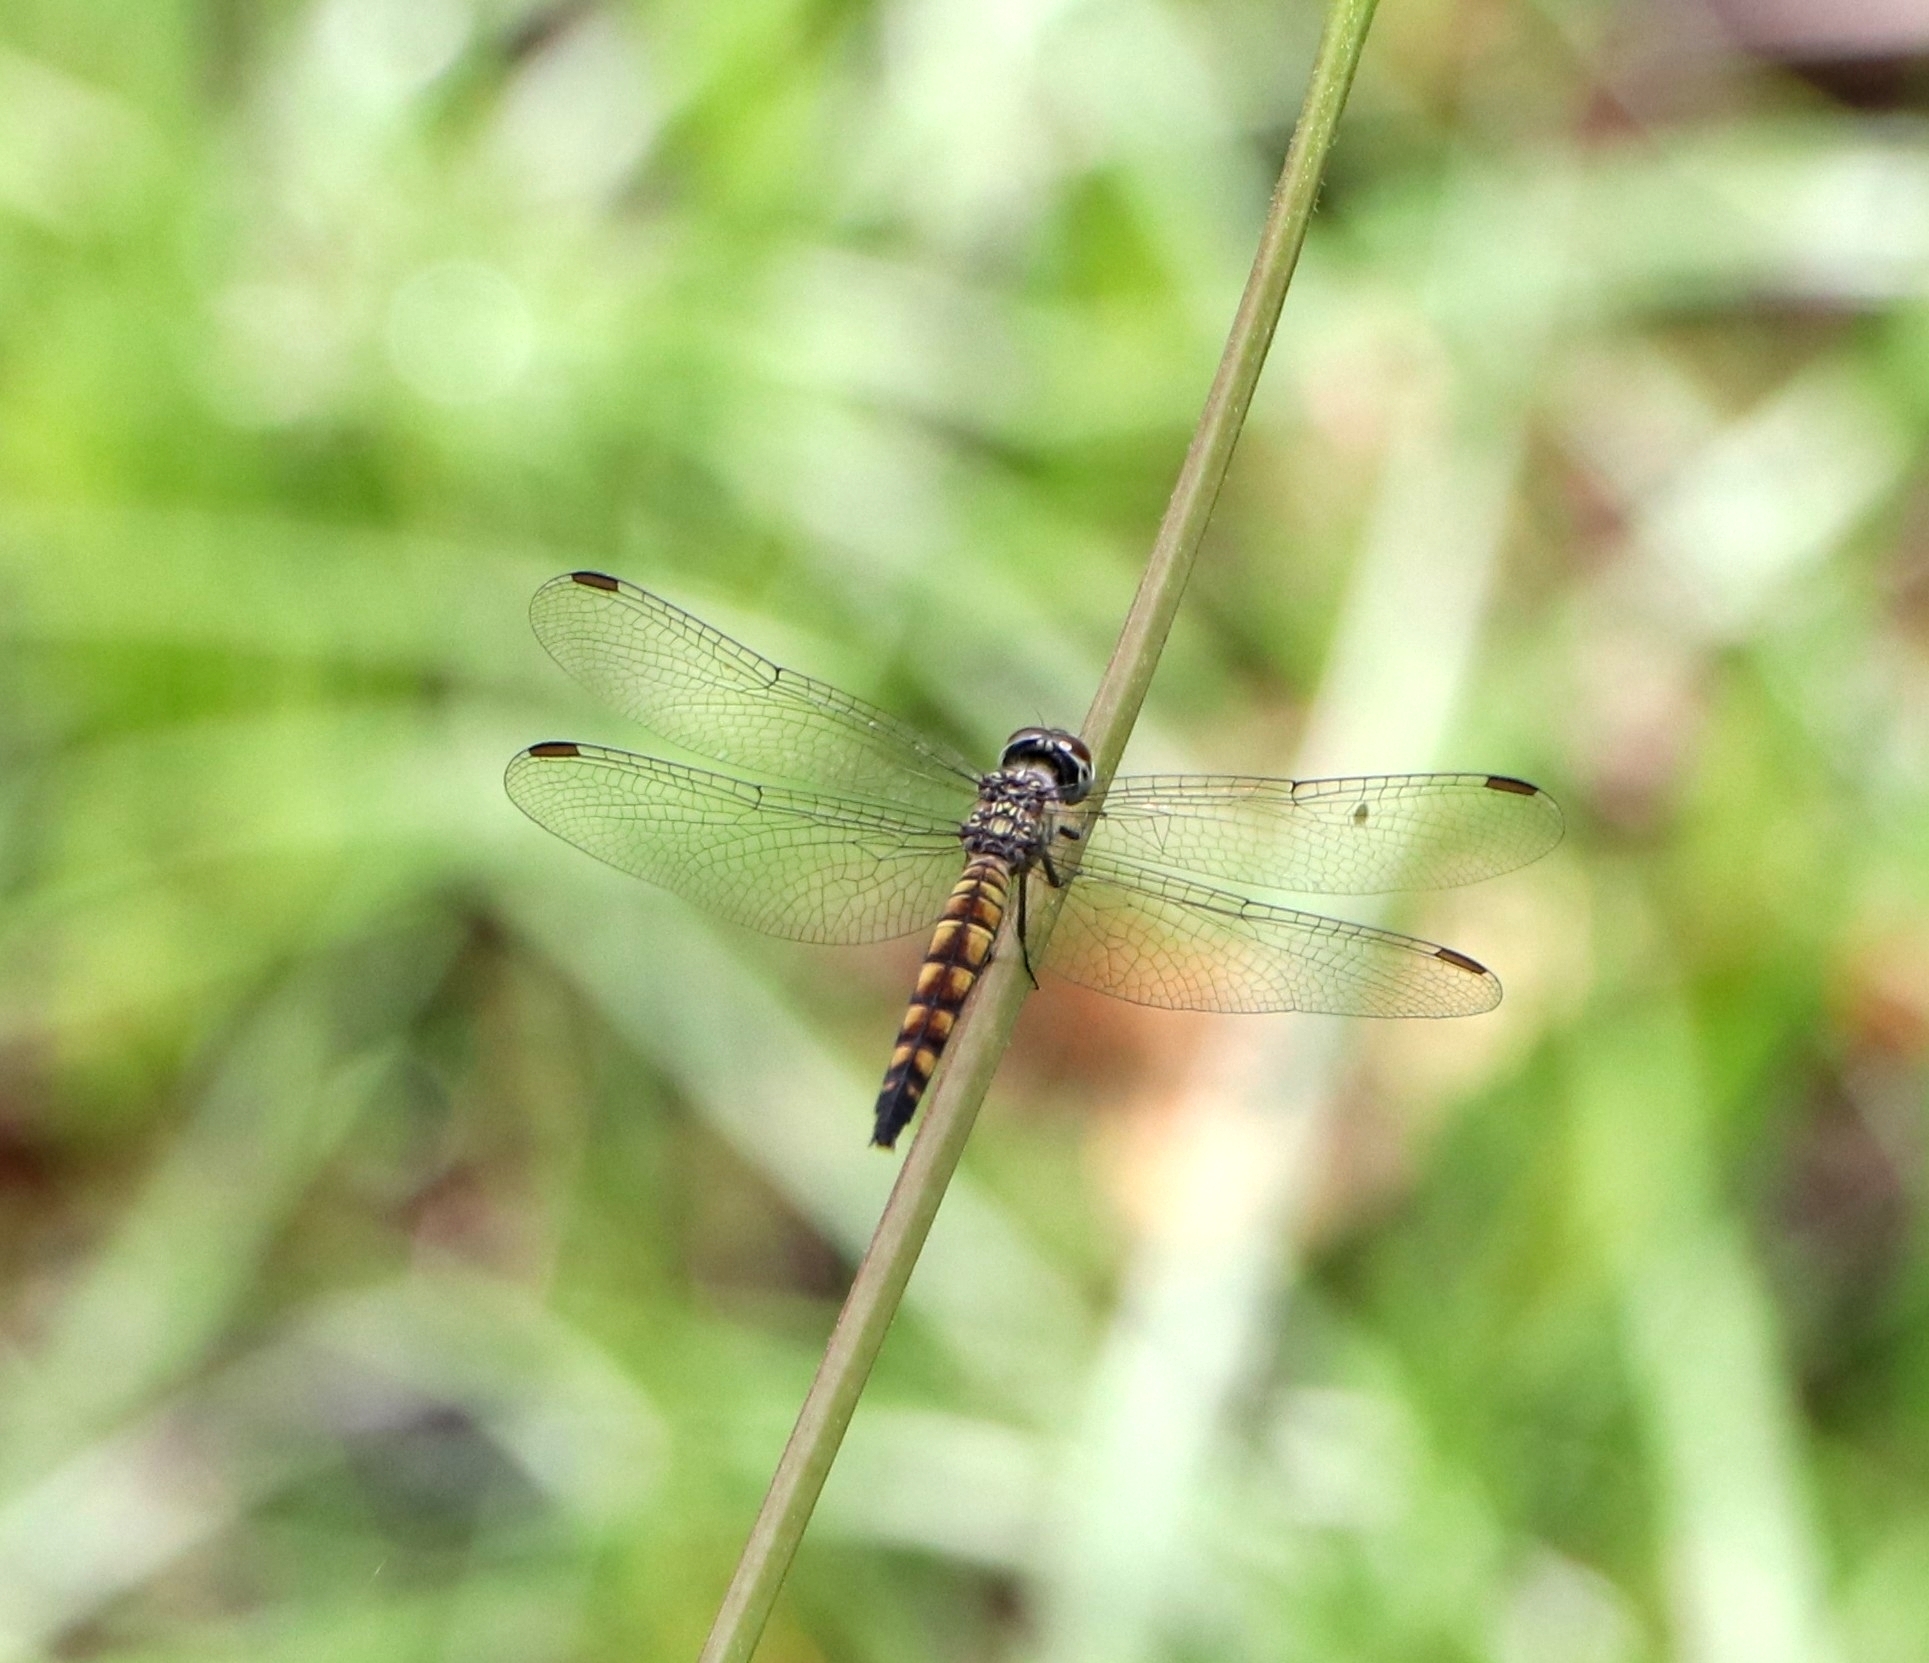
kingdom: Animalia
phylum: Arthropoda
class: Insecta
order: Odonata
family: Libellulidae
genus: Brachydiplax
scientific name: Brachydiplax sobrina
